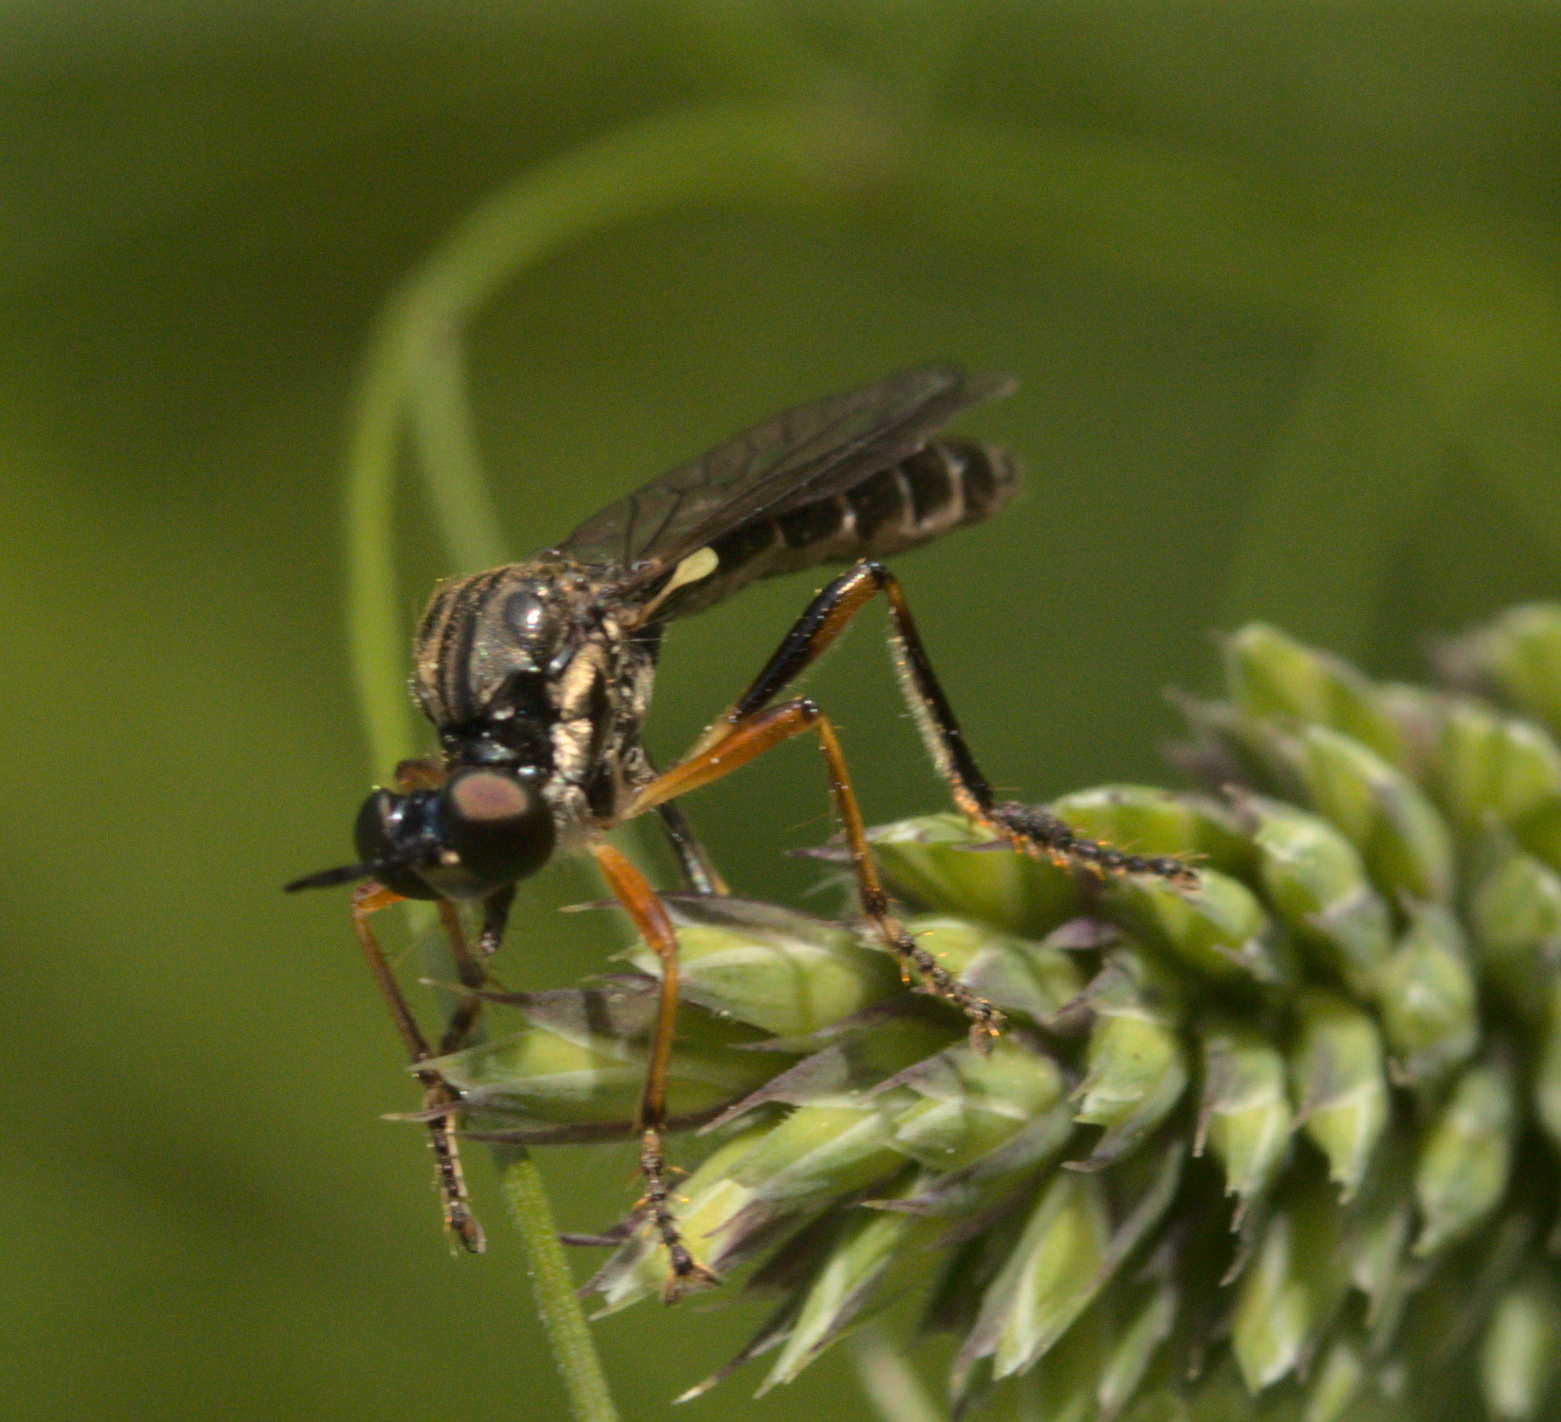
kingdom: Animalia
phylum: Arthropoda
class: Insecta
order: Diptera
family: Asilidae
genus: Dioctria
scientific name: Dioctria hyalipennis
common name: Stripe-legged robberfly
